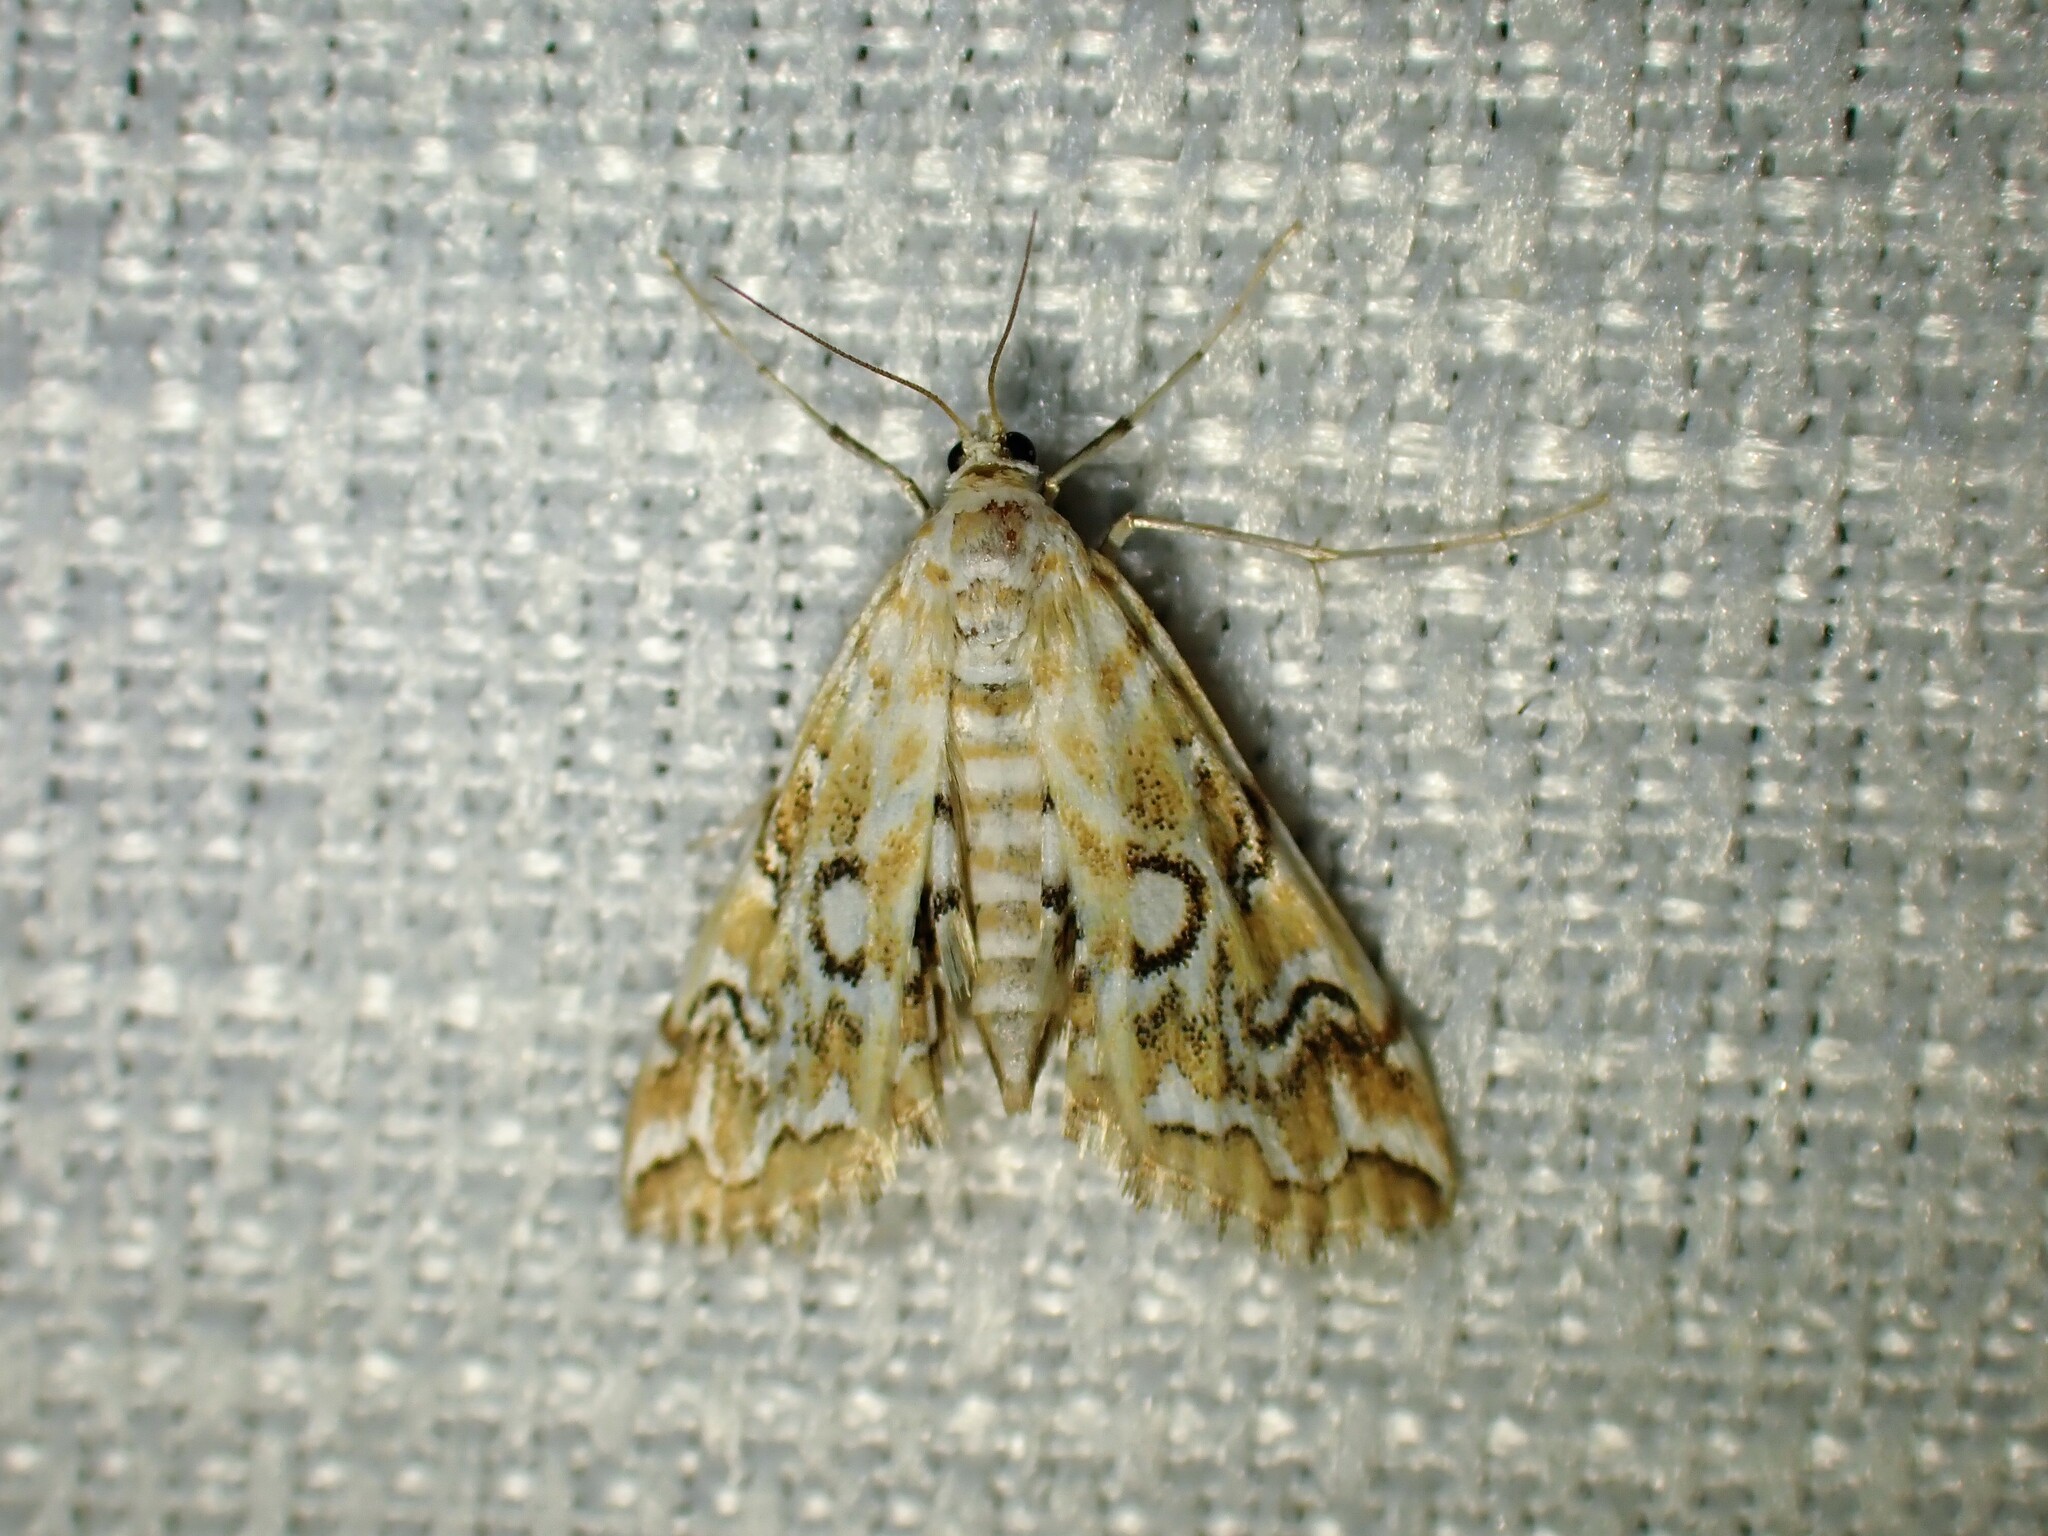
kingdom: Animalia
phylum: Arthropoda
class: Insecta
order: Lepidoptera
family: Crambidae
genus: Elophila
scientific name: Elophila icciusalis
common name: Pondside pyralid moth
